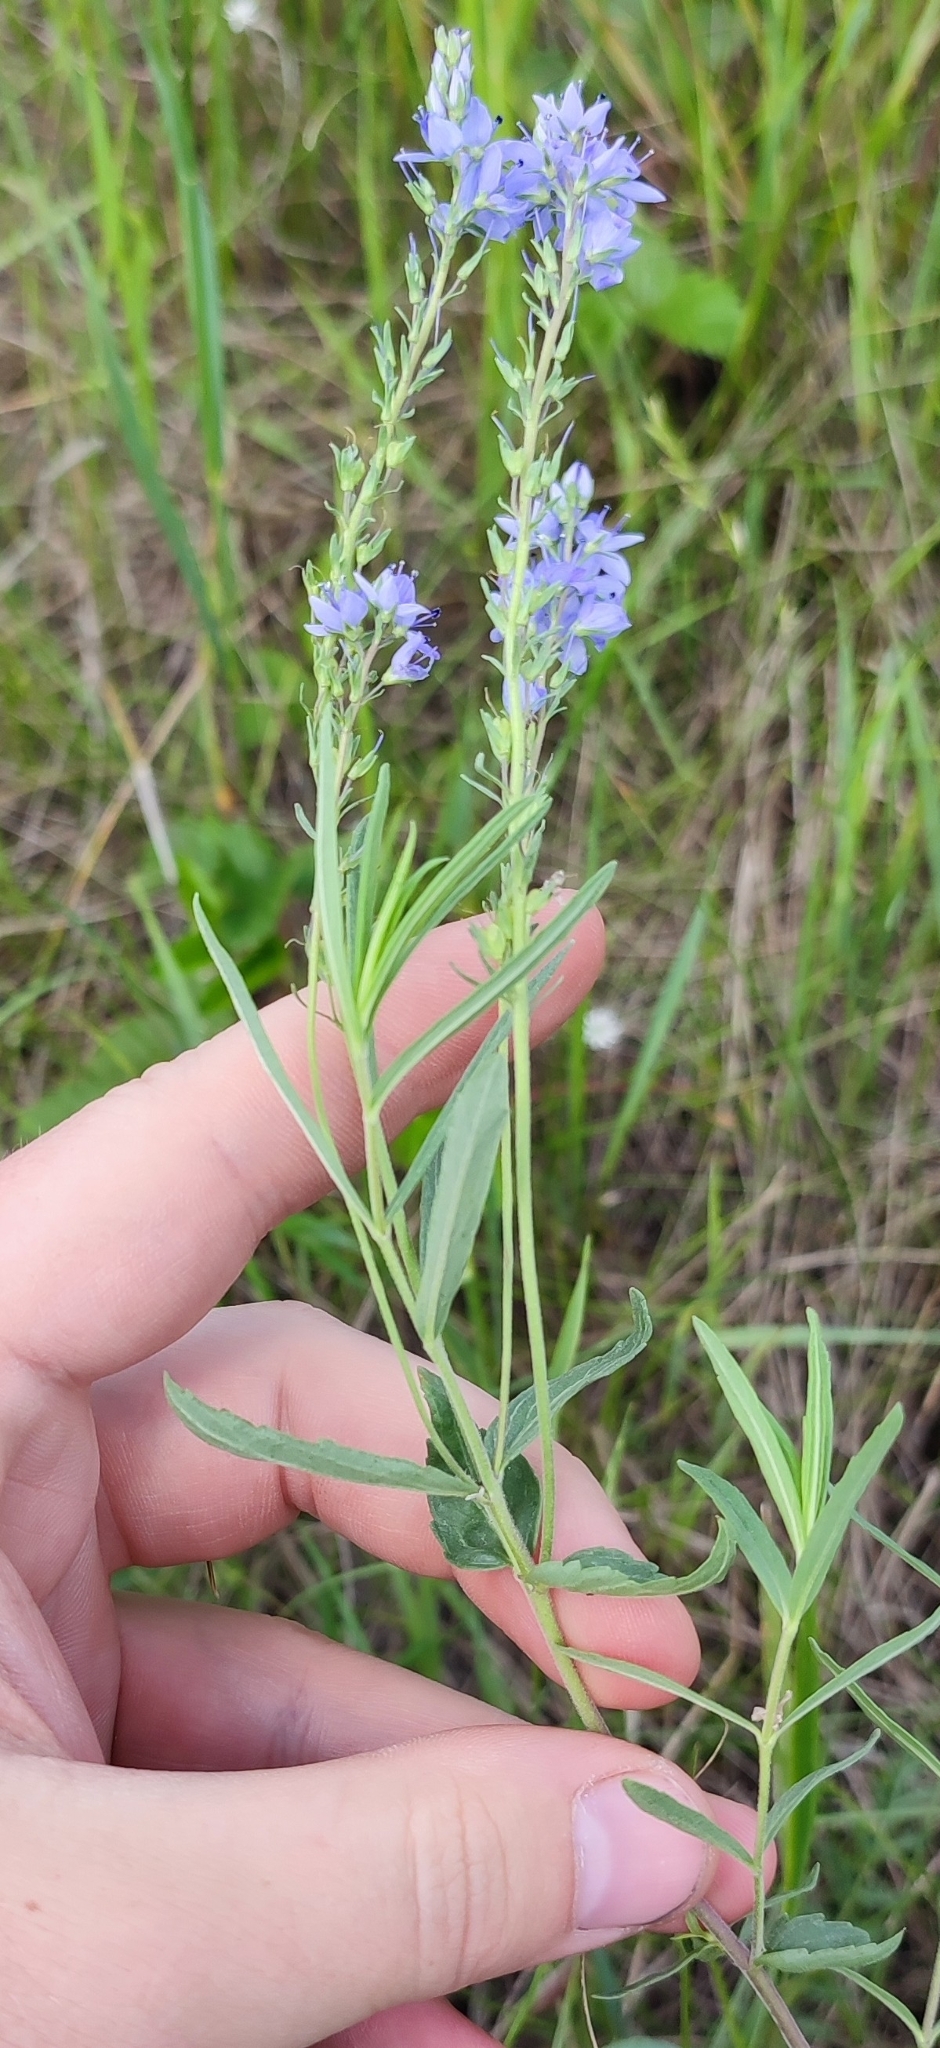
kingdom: Plantae
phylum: Tracheophyta
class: Magnoliopsida
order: Lamiales
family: Plantaginaceae
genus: Veronica
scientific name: Veronica prostrata
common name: Prostrate speedwell
